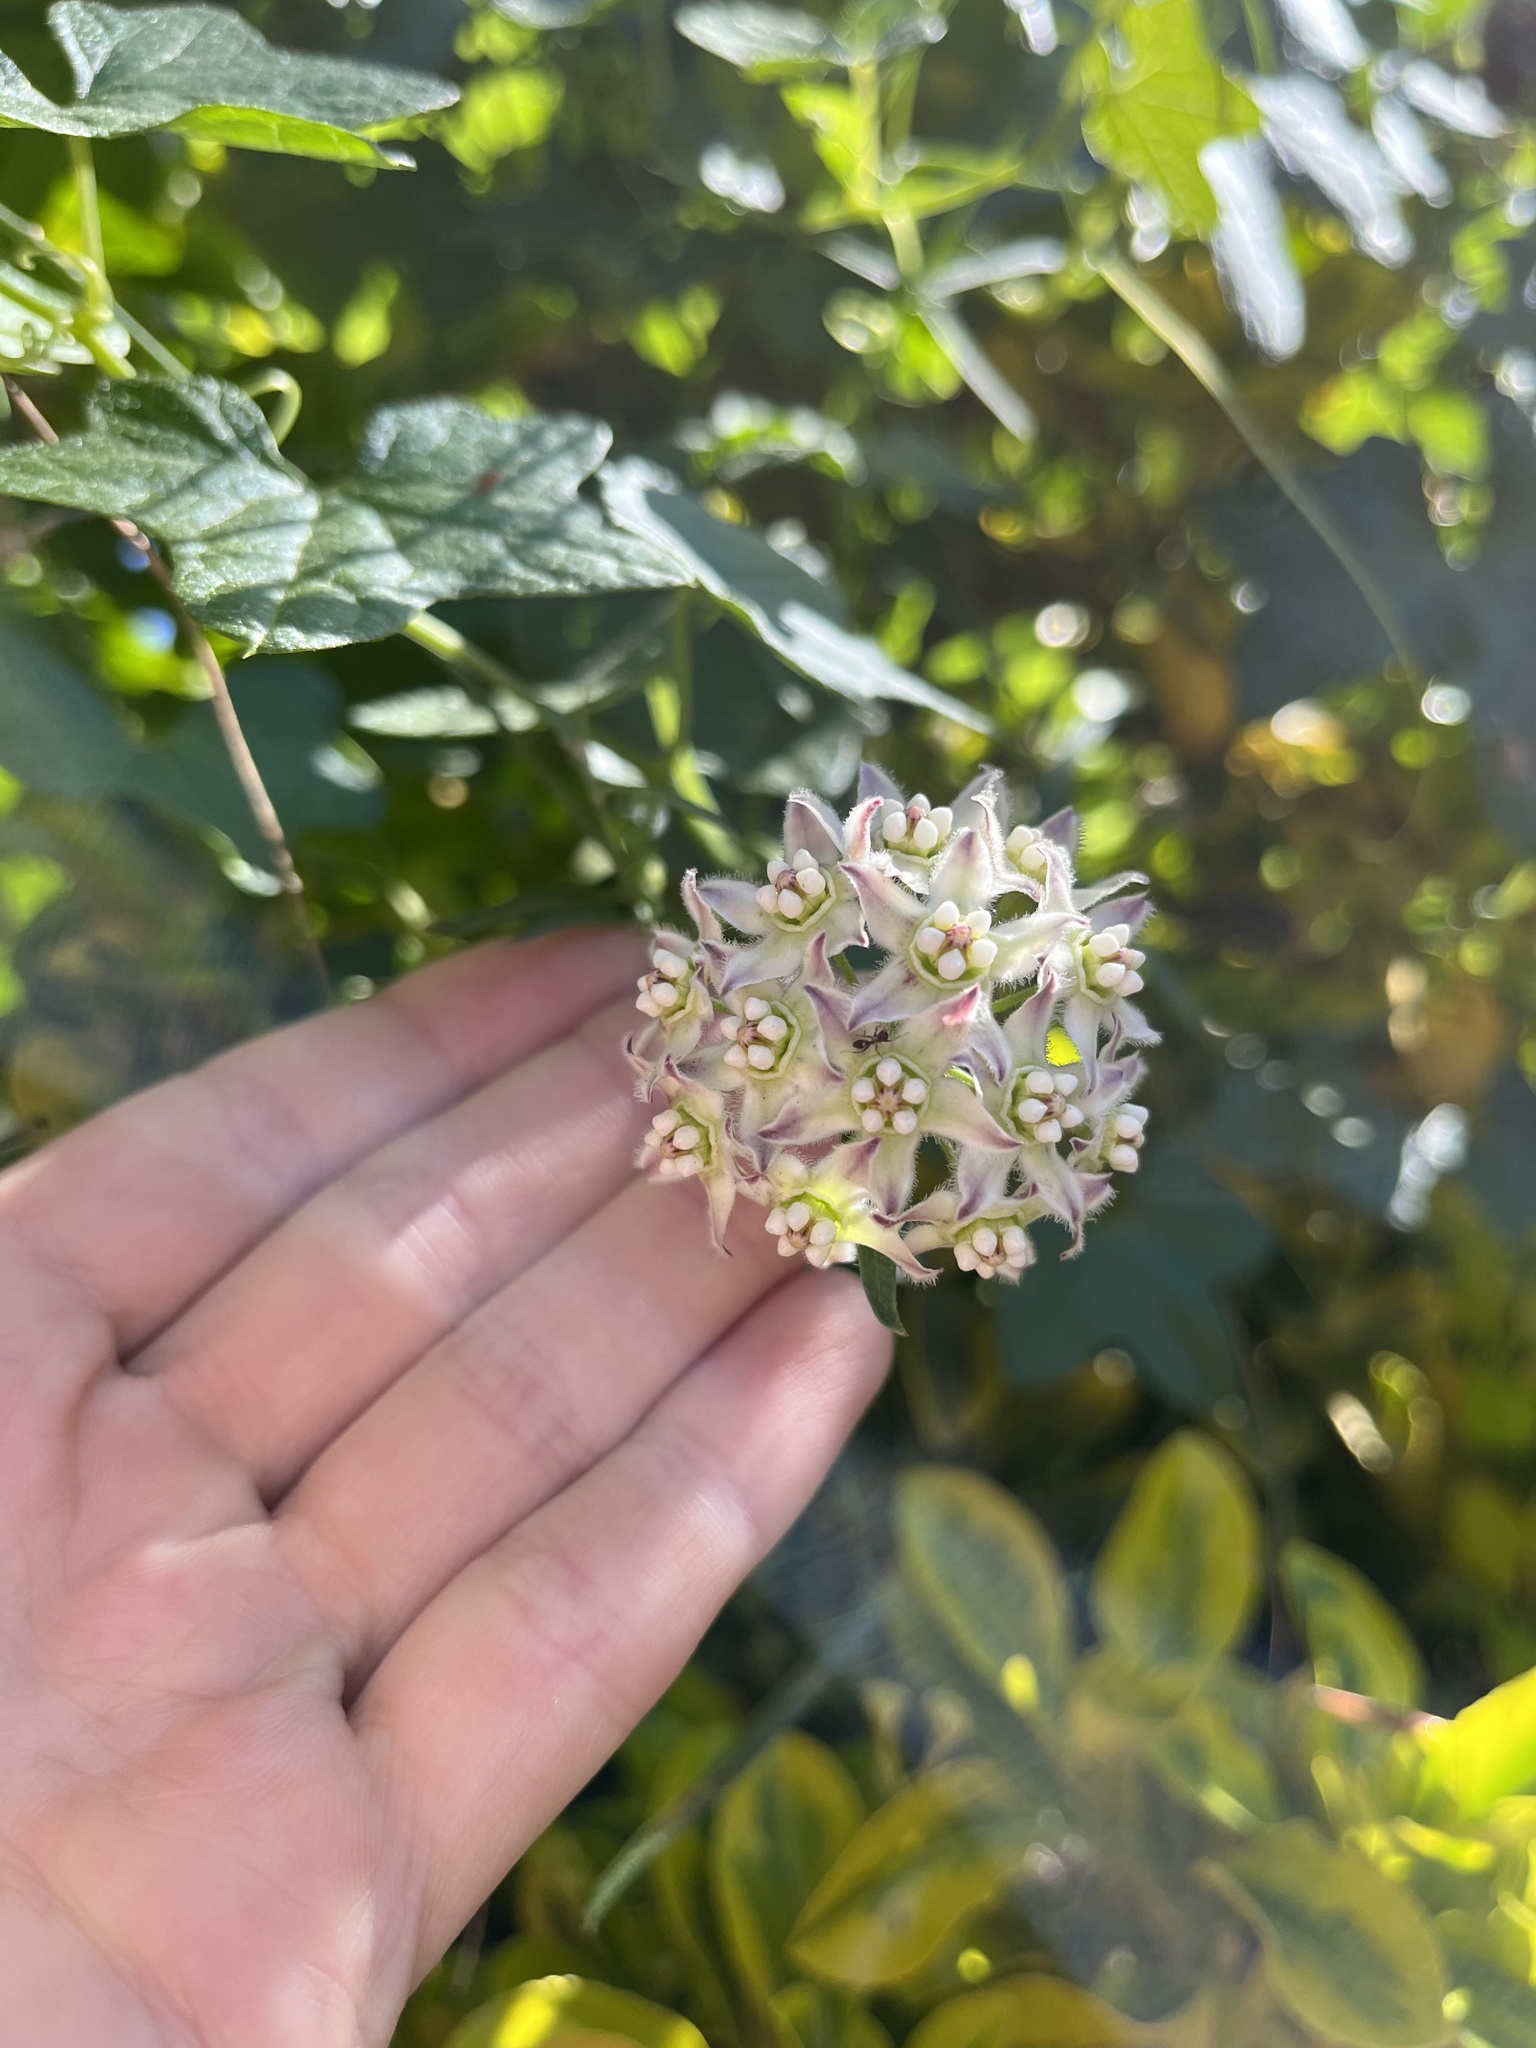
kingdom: Plantae
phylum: Tracheophyta
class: Magnoliopsida
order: Gentianales
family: Apocynaceae
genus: Funastrum
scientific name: Funastrum heterophyllum
